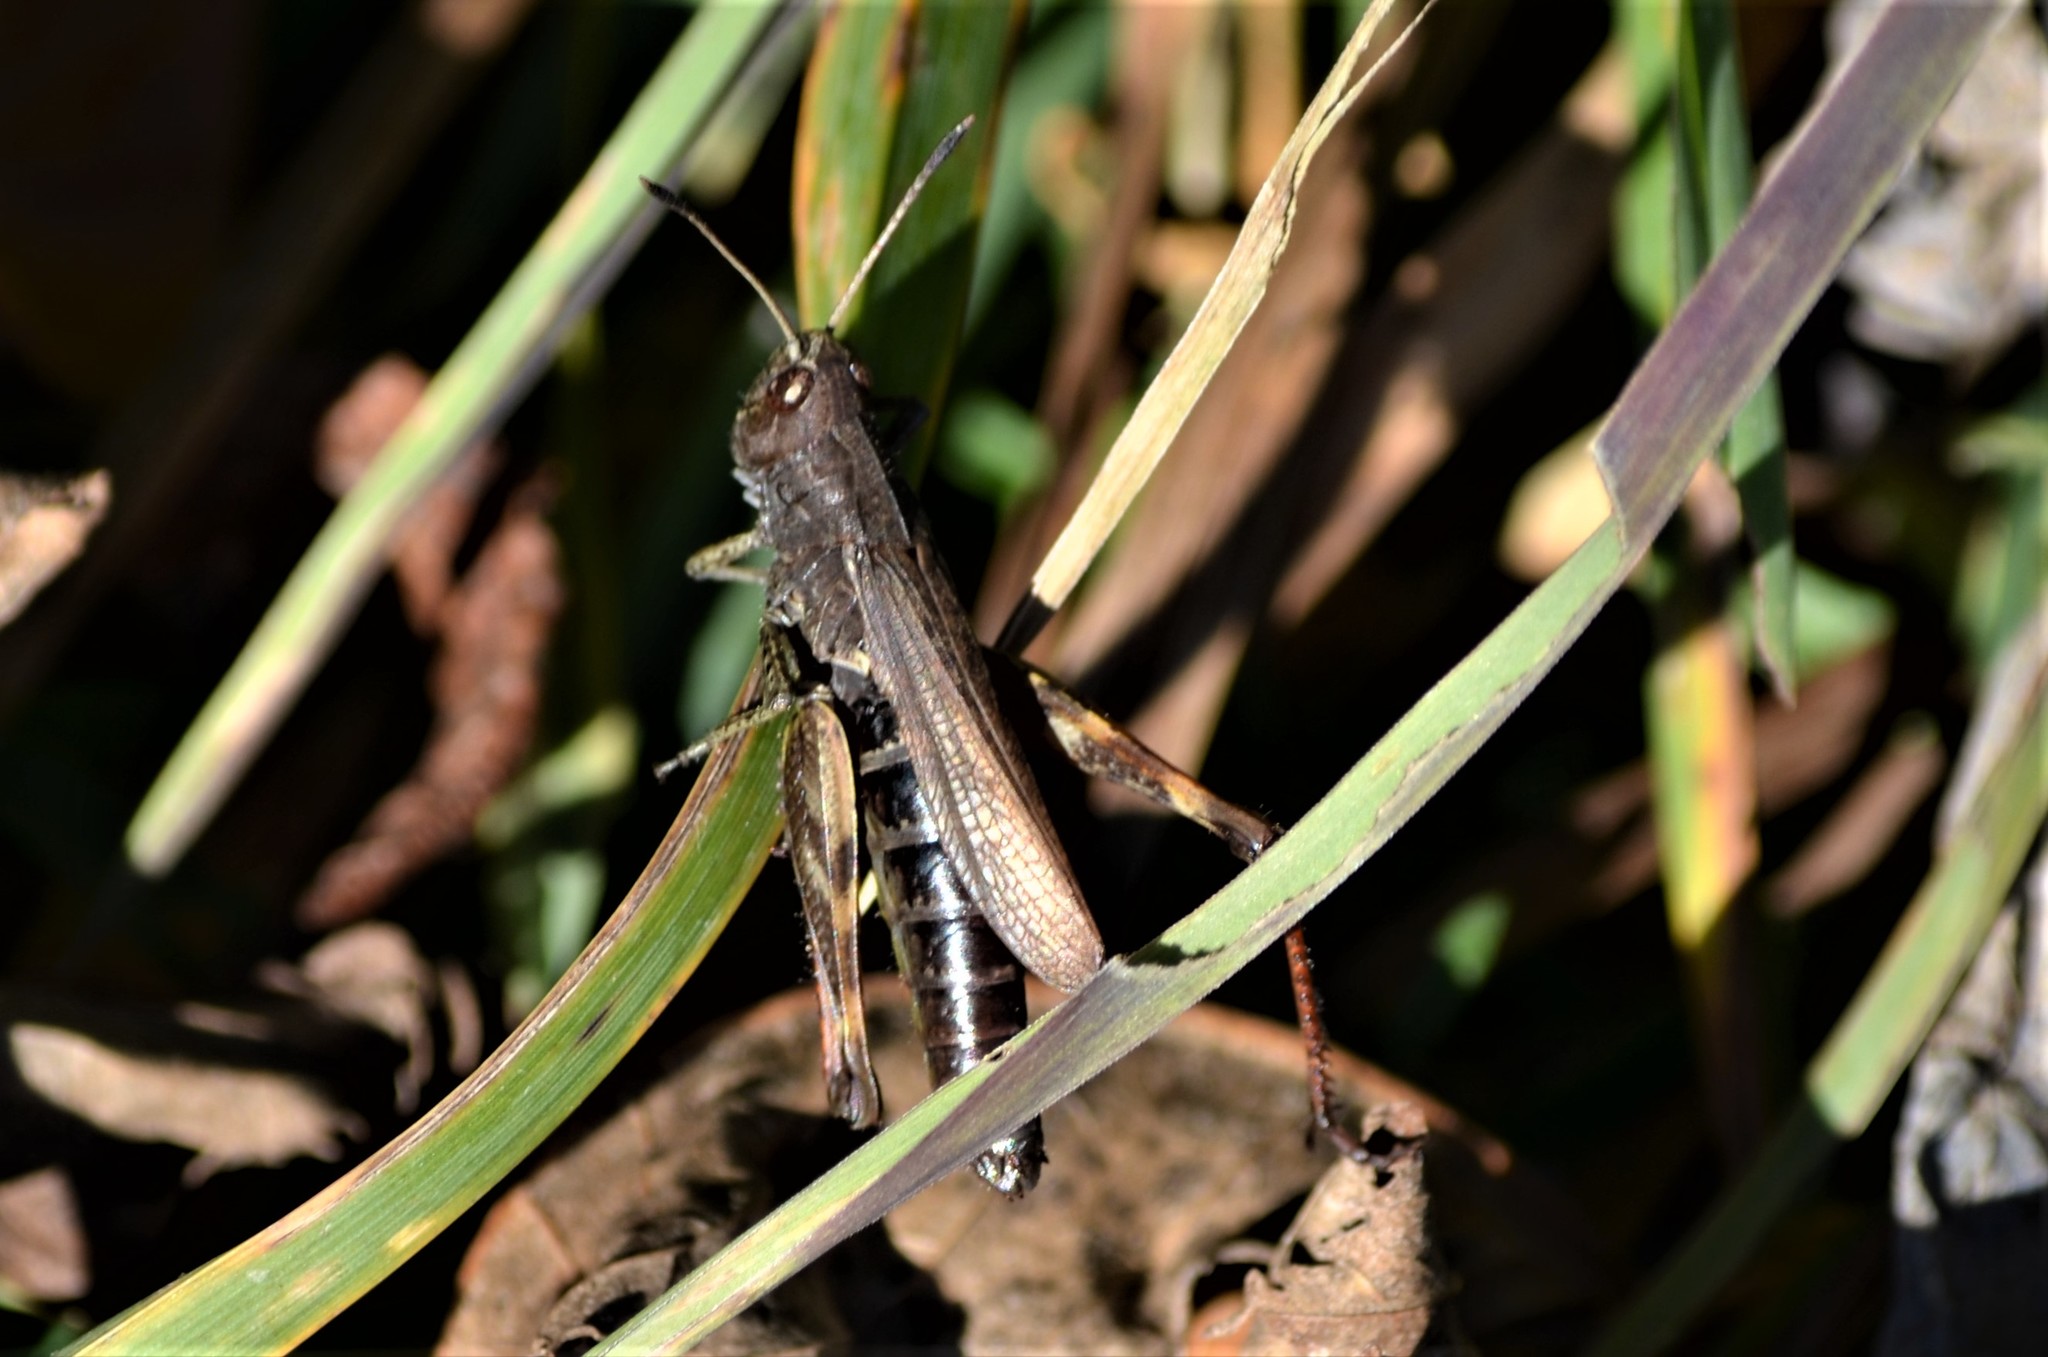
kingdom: Animalia
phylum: Arthropoda
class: Insecta
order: Orthoptera
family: Acrididae
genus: Gomphocerippus
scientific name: Gomphocerippus rufus
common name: Rufous grasshopper
